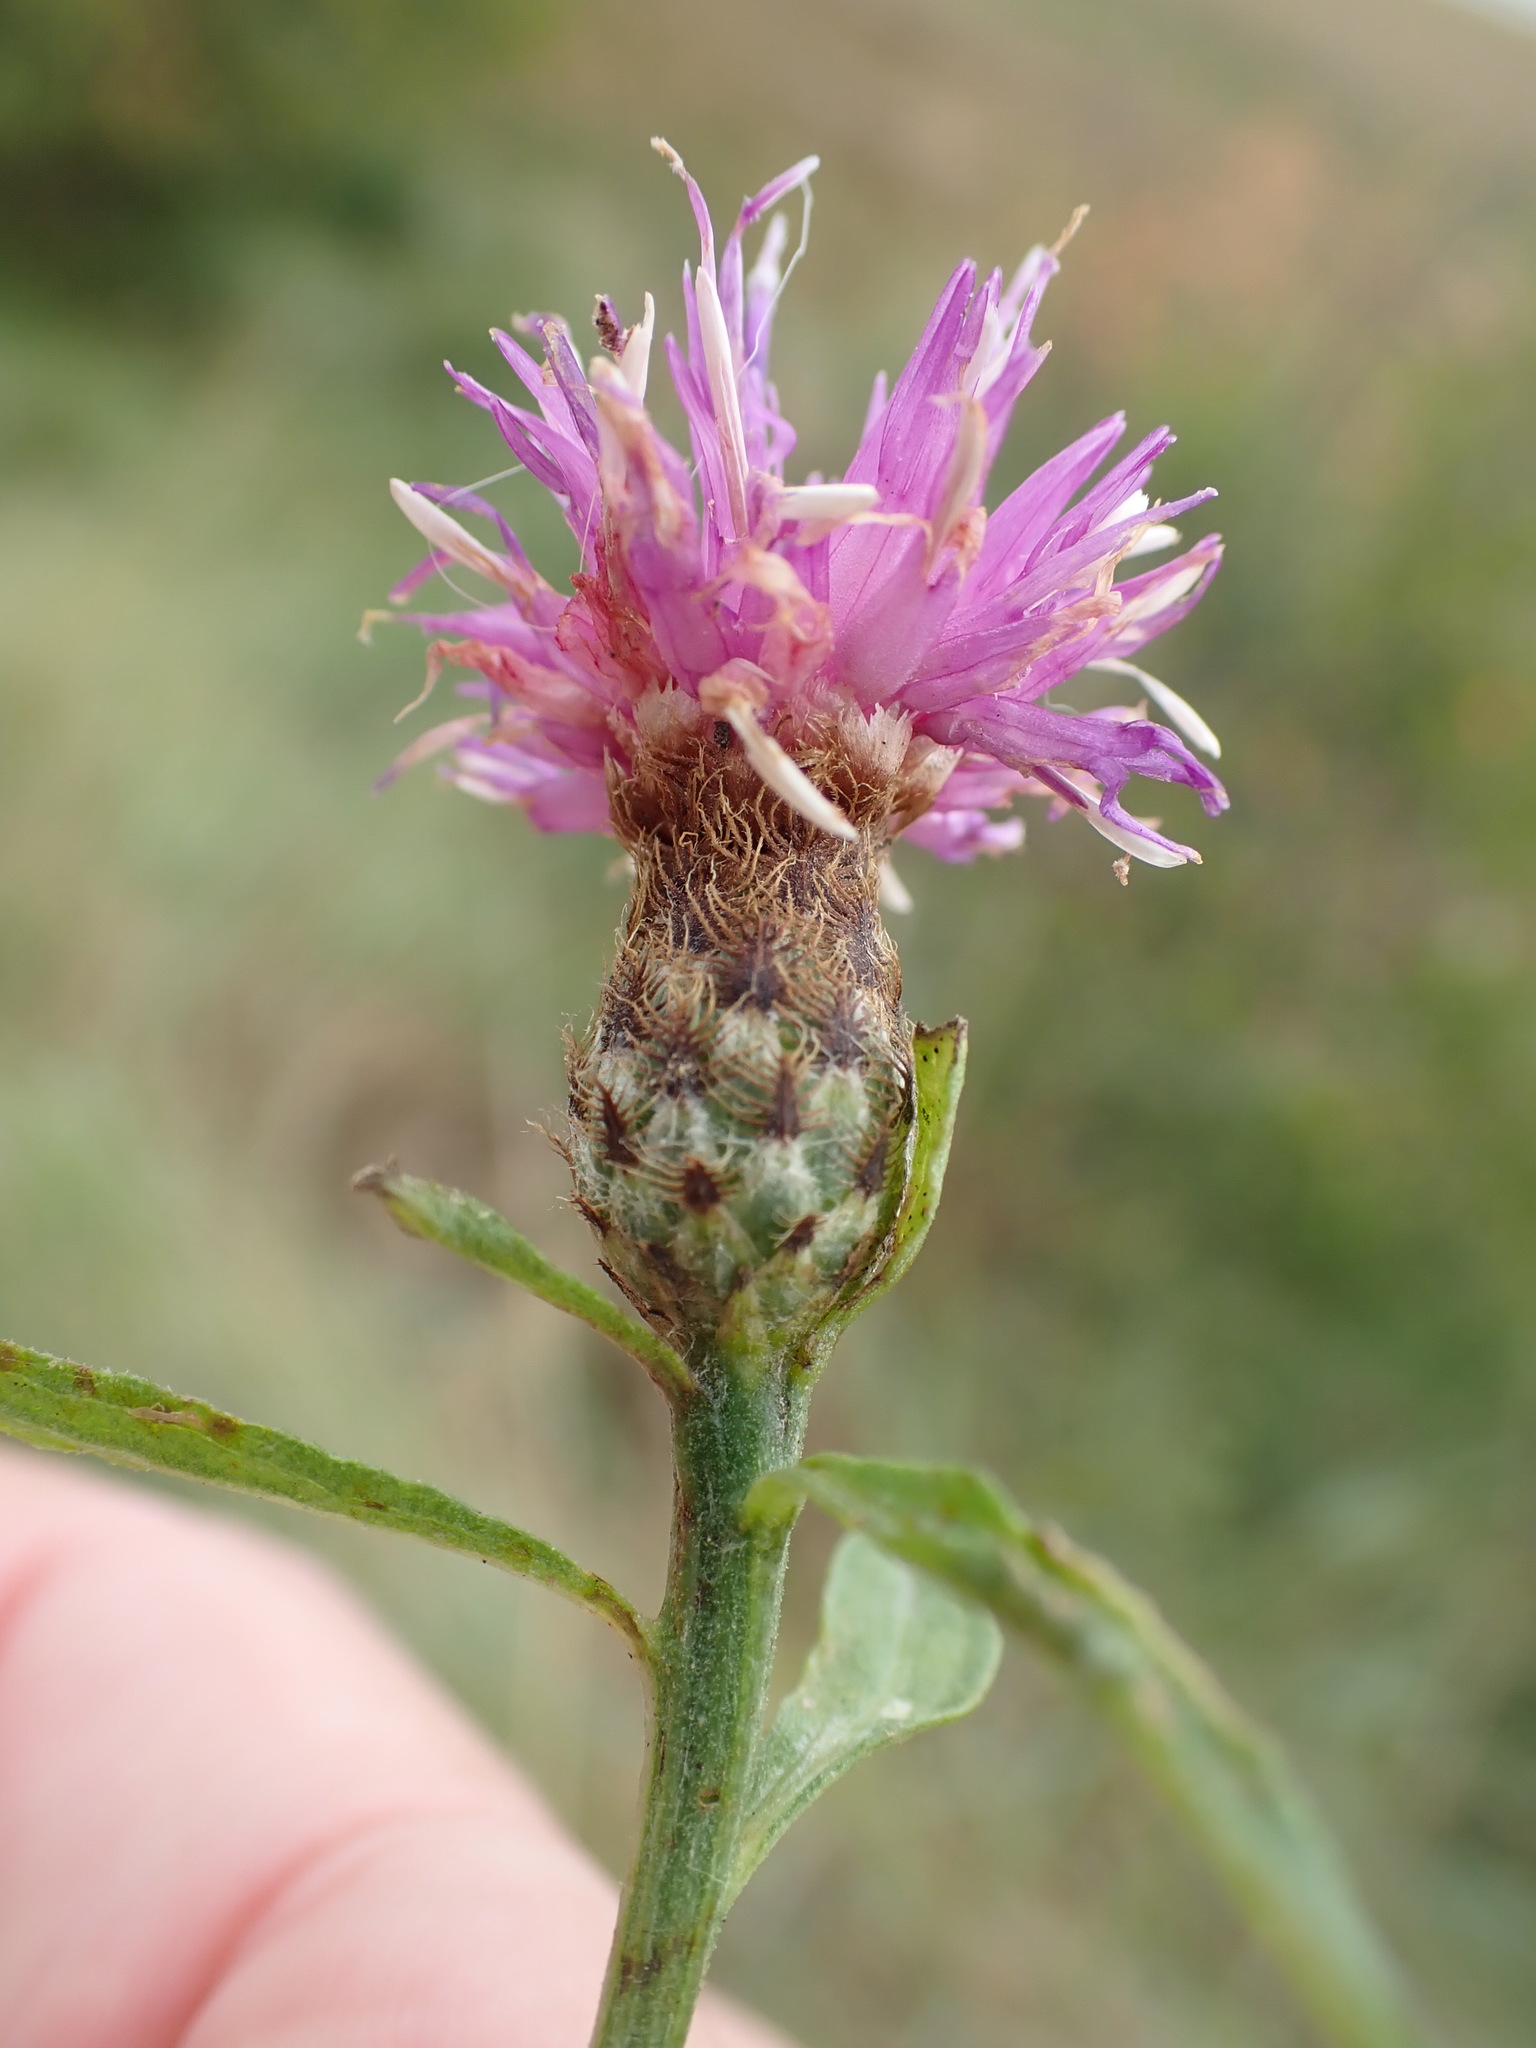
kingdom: Plantae
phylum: Tracheophyta
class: Magnoliopsida
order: Asterales
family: Asteraceae
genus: Centaurea
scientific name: Centaurea debeauxii
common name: Slender knapweed
